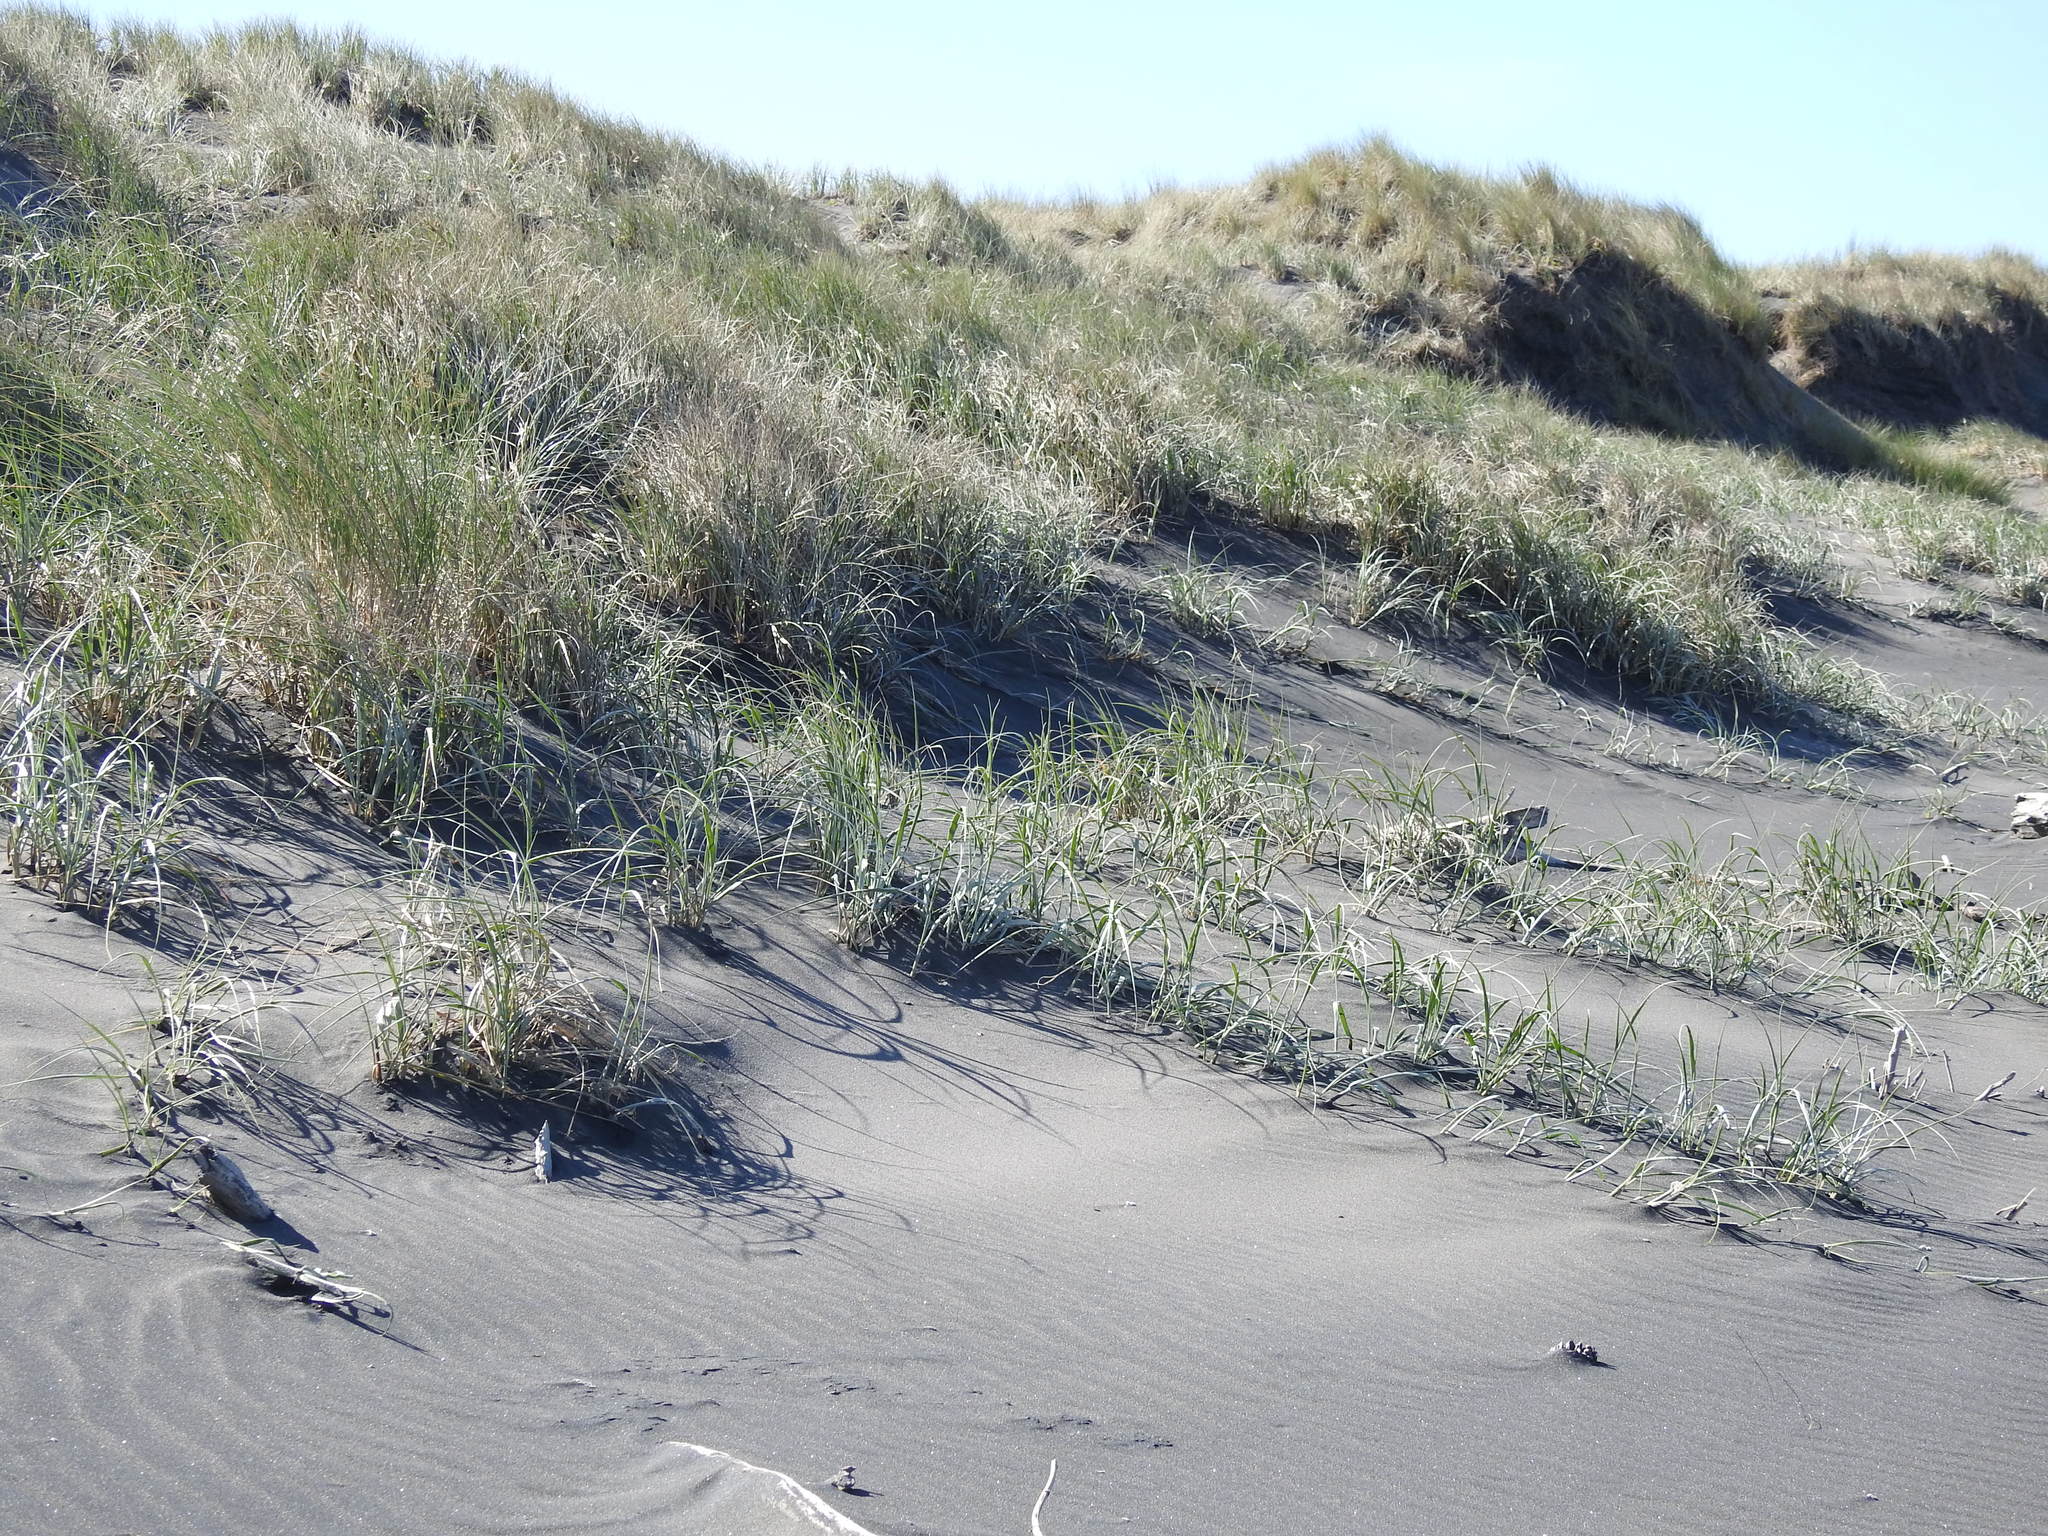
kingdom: Plantae
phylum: Tracheophyta
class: Liliopsida
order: Poales
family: Poaceae
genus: Spinifex
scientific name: Spinifex sericeus
